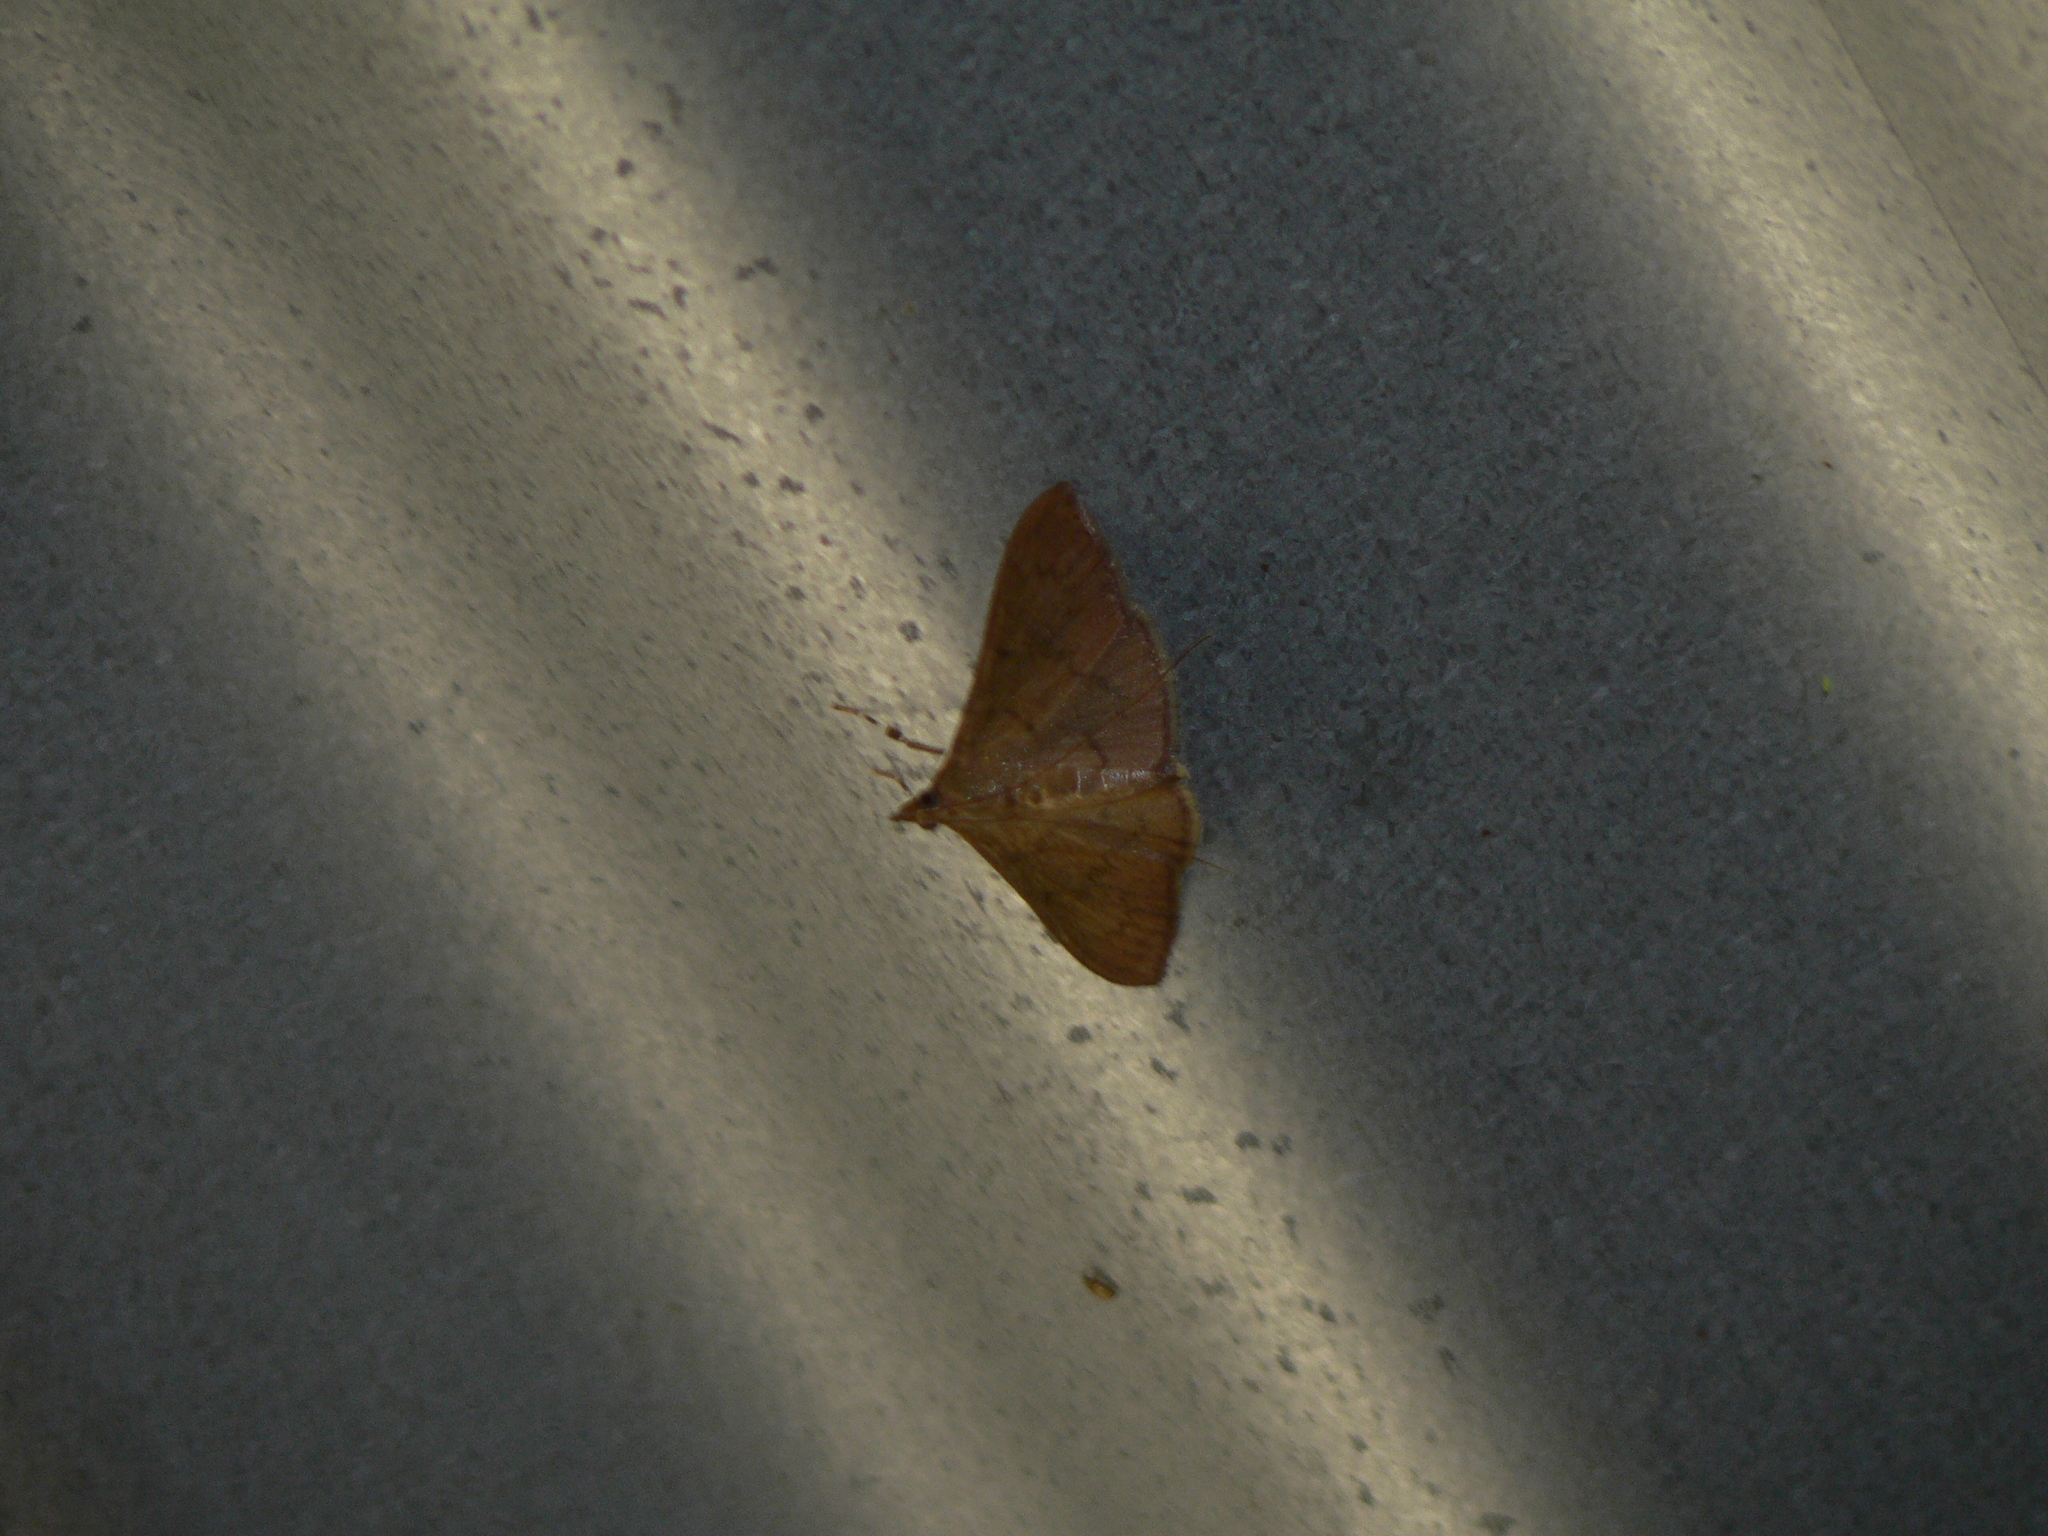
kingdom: Animalia
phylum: Arthropoda
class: Insecta
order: Lepidoptera
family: Crambidae
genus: Hyalobathra
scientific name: Hyalobathra
